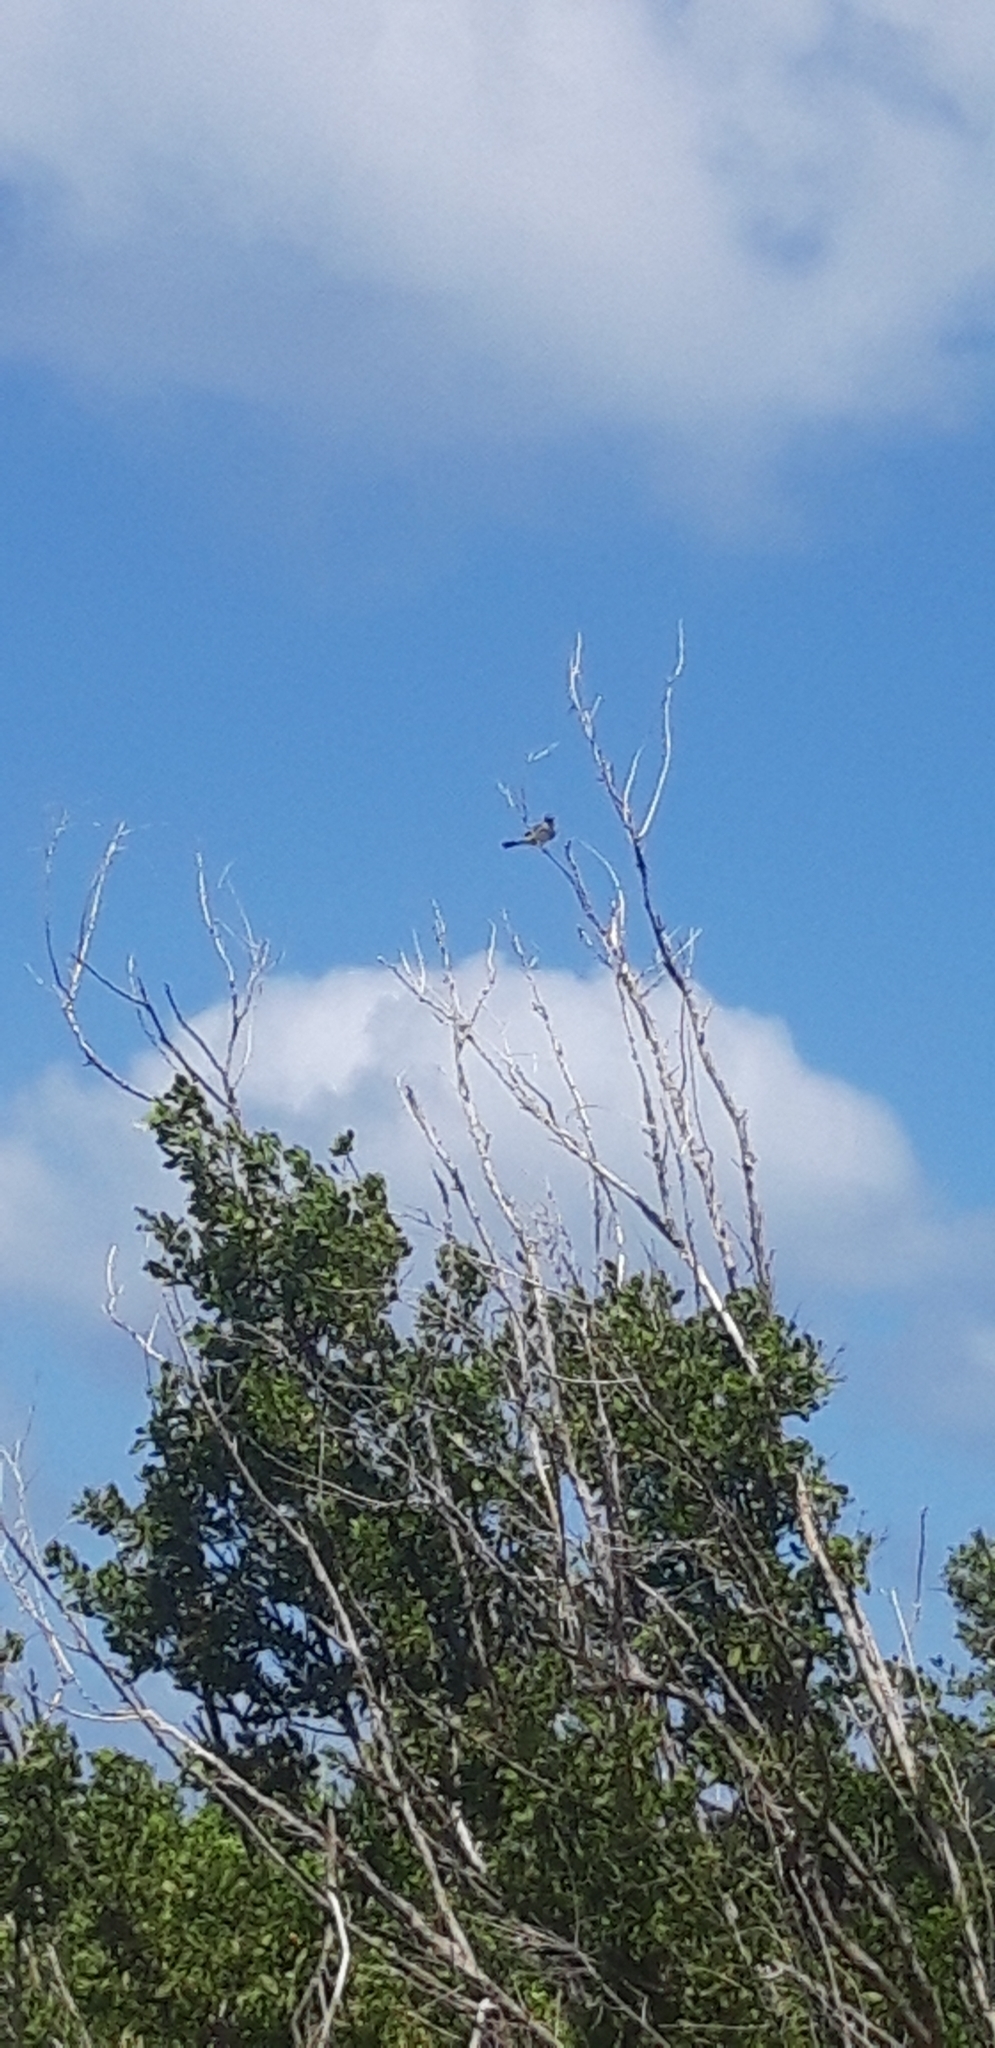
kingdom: Animalia
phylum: Chordata
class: Aves
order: Passeriformes
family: Tyrannidae
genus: Tyrannus
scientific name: Tyrannus dominicensis
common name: Gray kingbird
